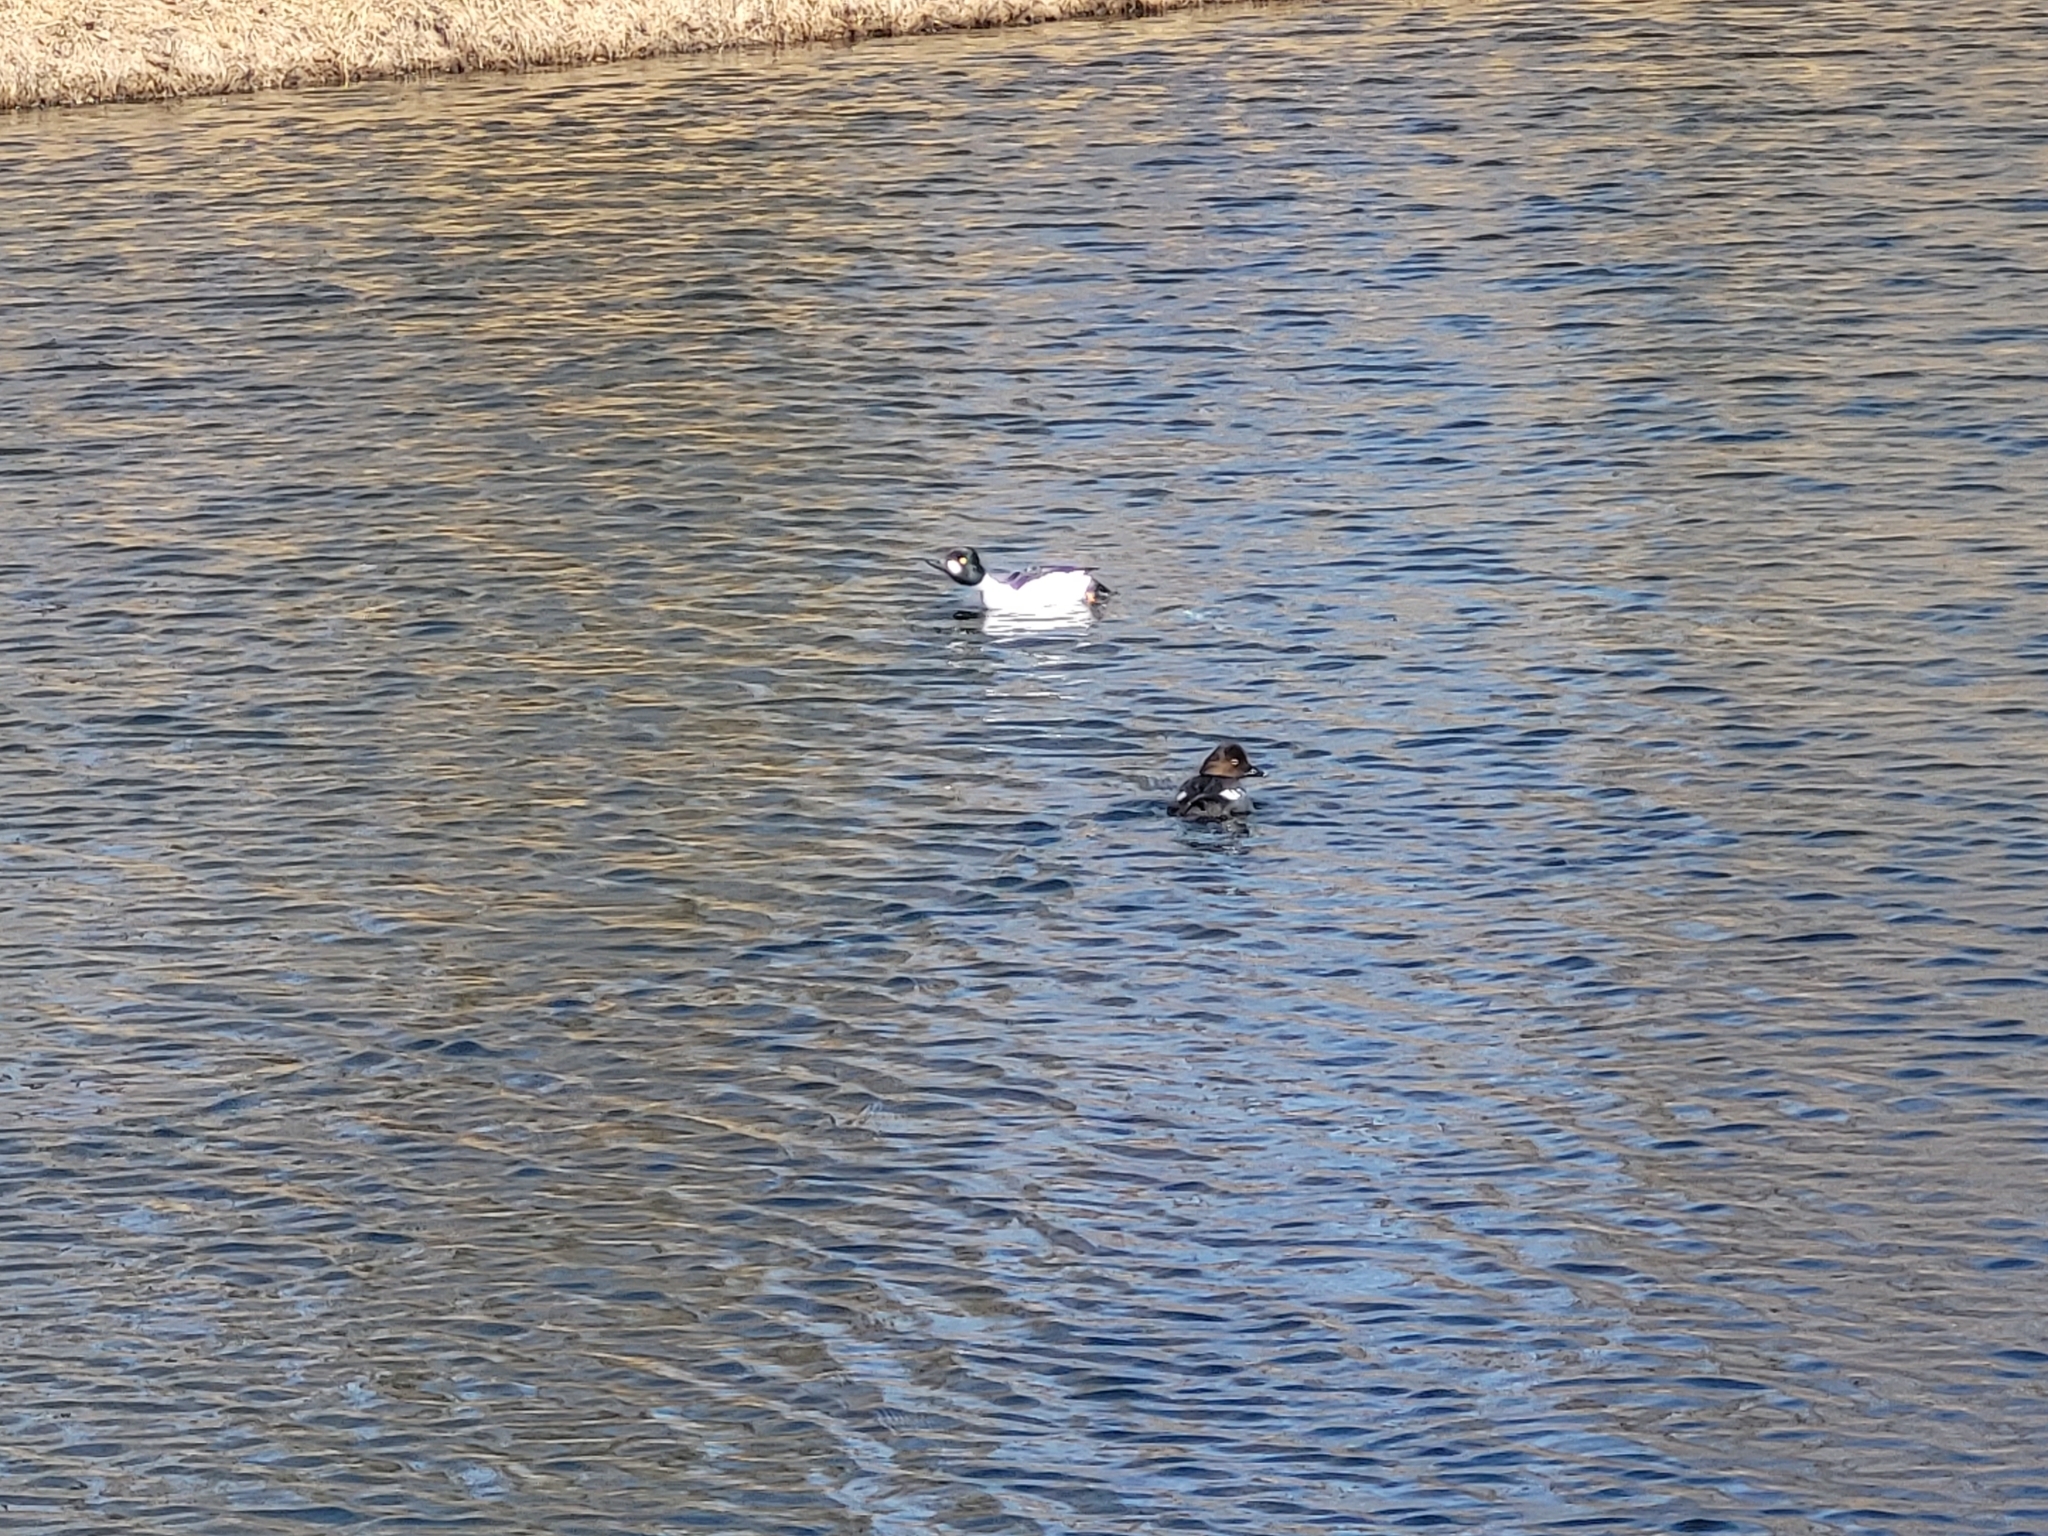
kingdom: Animalia
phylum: Chordata
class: Aves
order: Anseriformes
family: Anatidae
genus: Bucephala
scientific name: Bucephala clangula
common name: Common goldeneye
